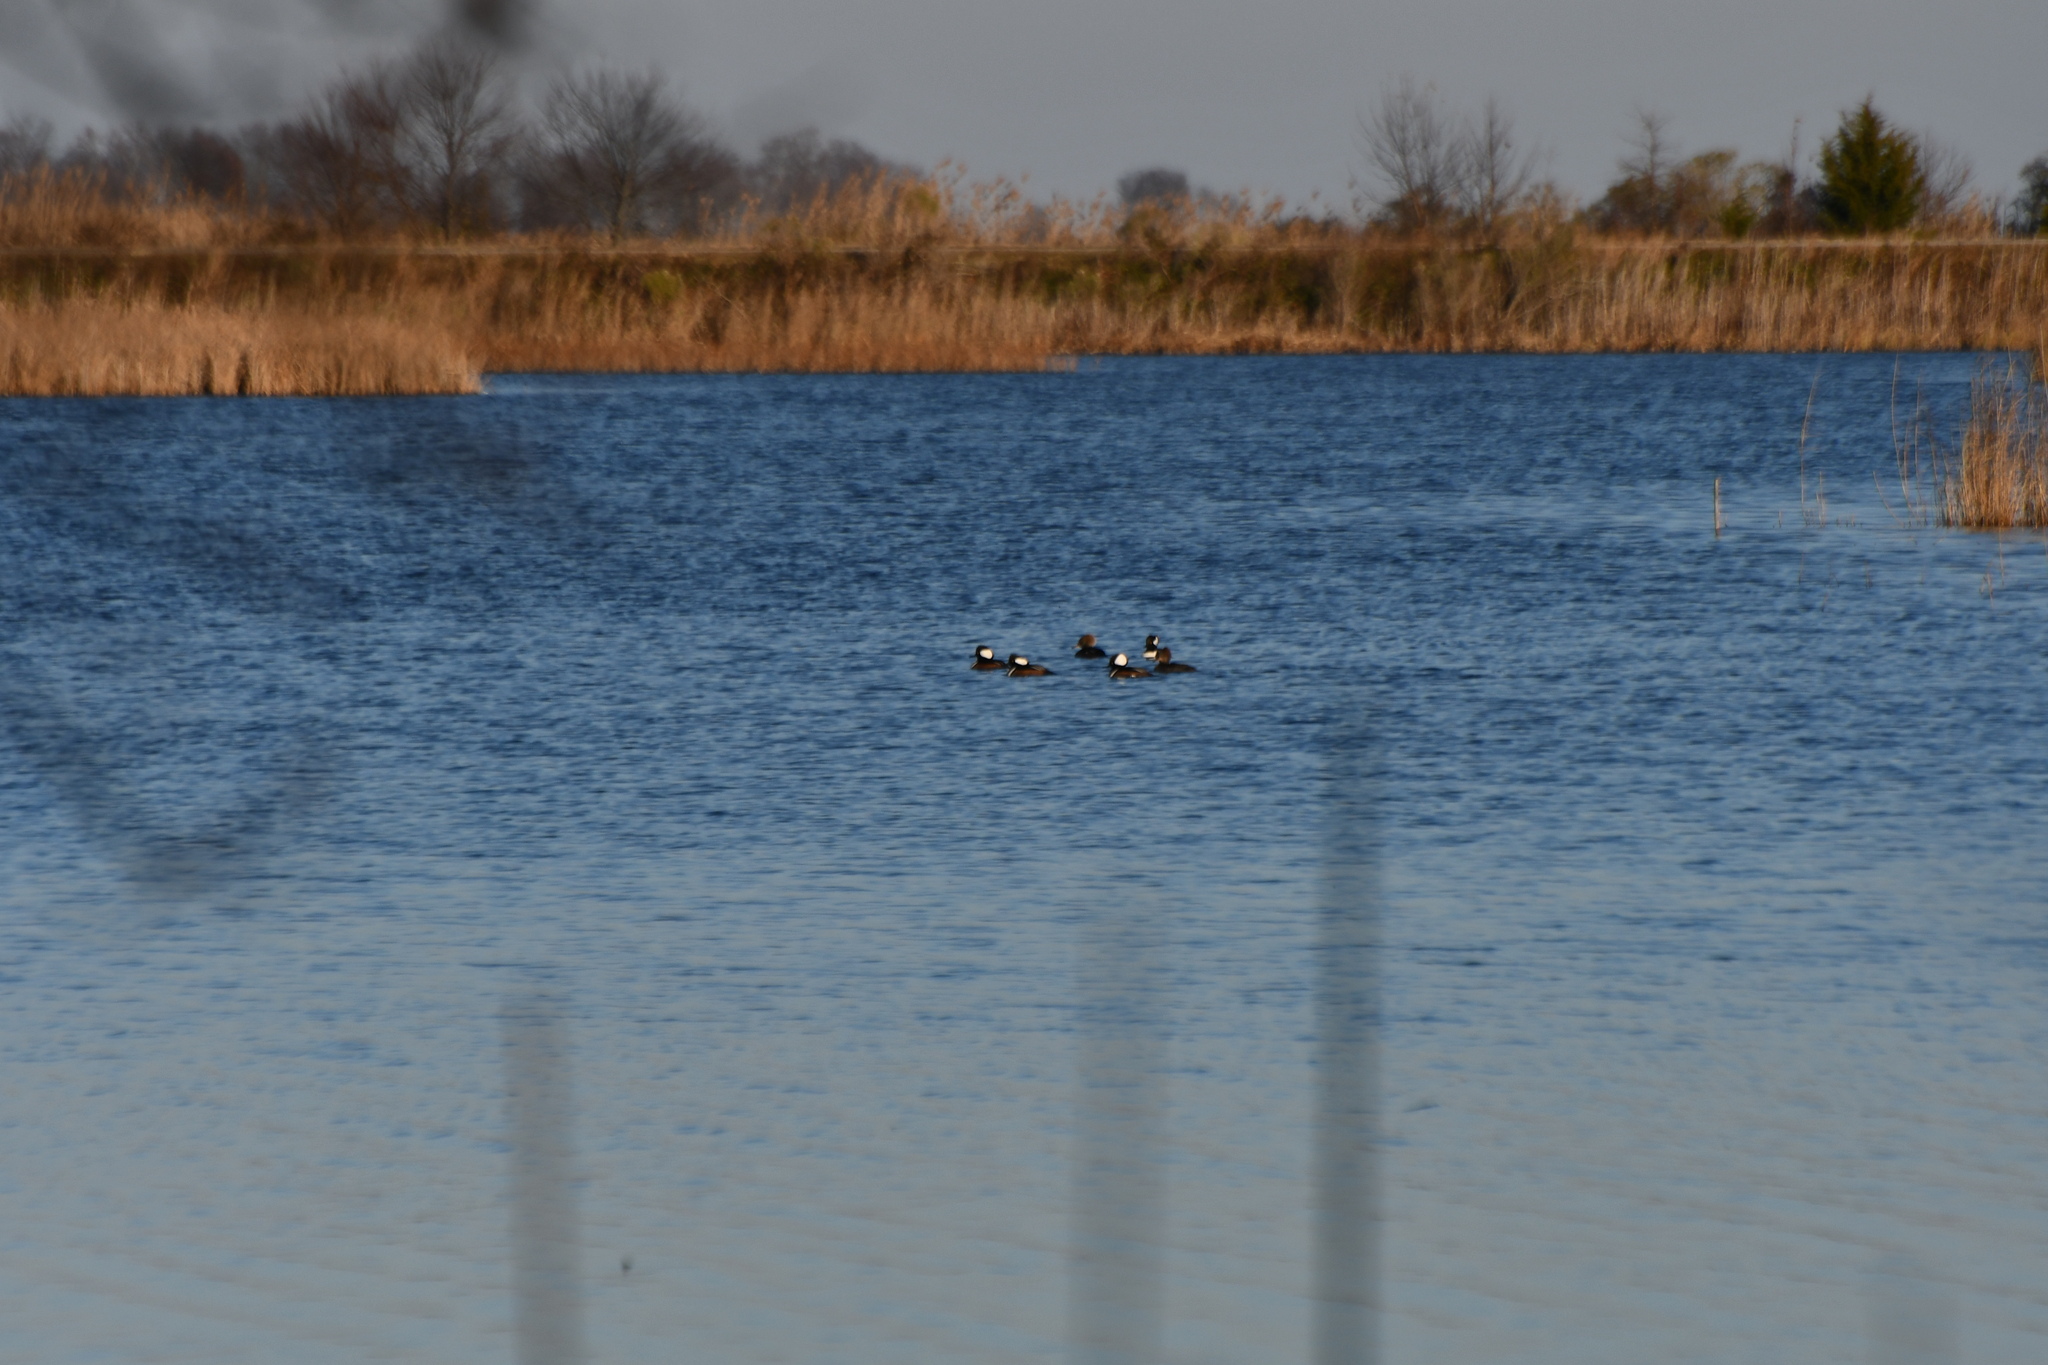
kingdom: Animalia
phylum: Chordata
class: Aves
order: Anseriformes
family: Anatidae
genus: Lophodytes
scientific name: Lophodytes cucullatus
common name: Hooded merganser
